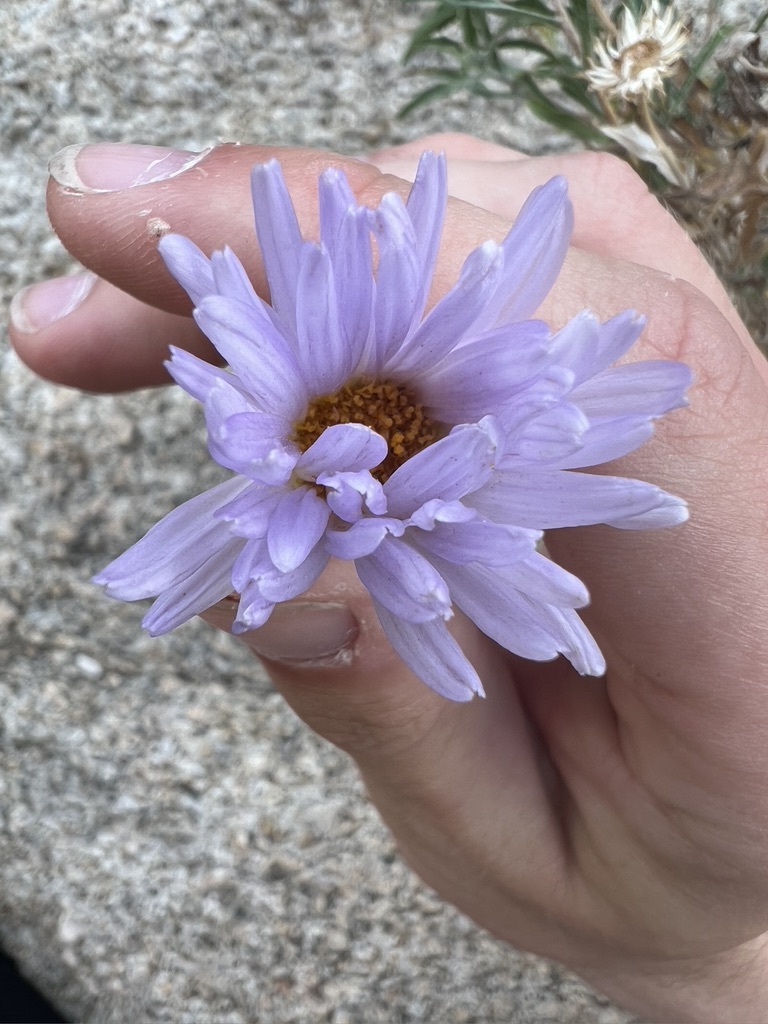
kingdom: Plantae
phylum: Tracheophyta
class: Magnoliopsida
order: Asterales
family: Asteraceae
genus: Xylorhiza
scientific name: Xylorhiza tortifolia
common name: Hurt-leaf woody-aster
